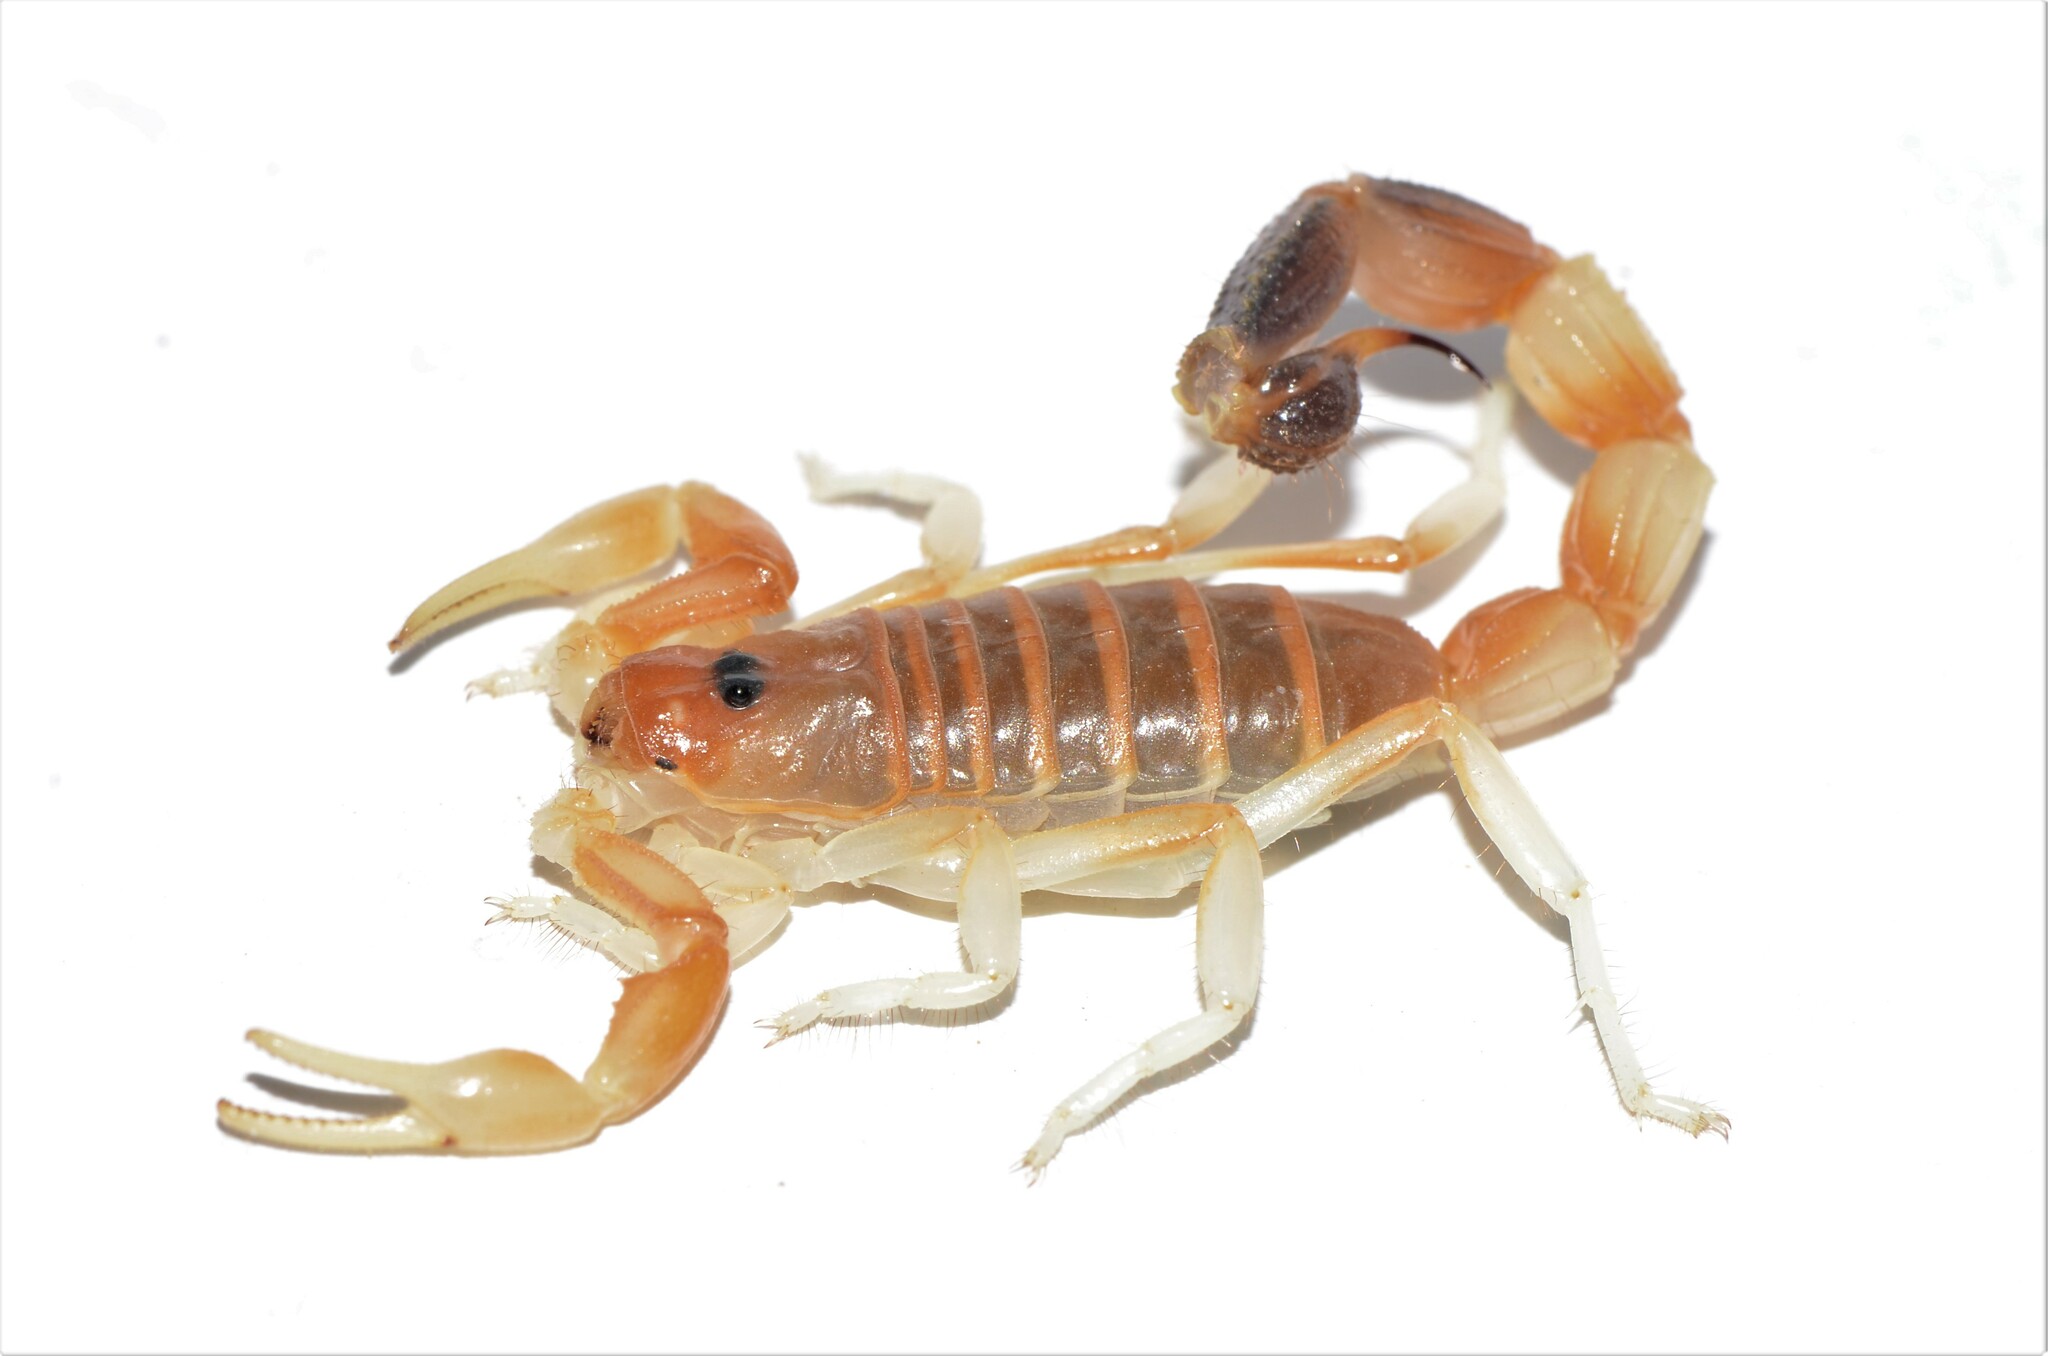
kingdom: Animalia
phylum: Arthropoda
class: Arachnida
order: Scorpiones
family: Buthidae
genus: Parabuthus
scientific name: Parabuthus laevifrons
